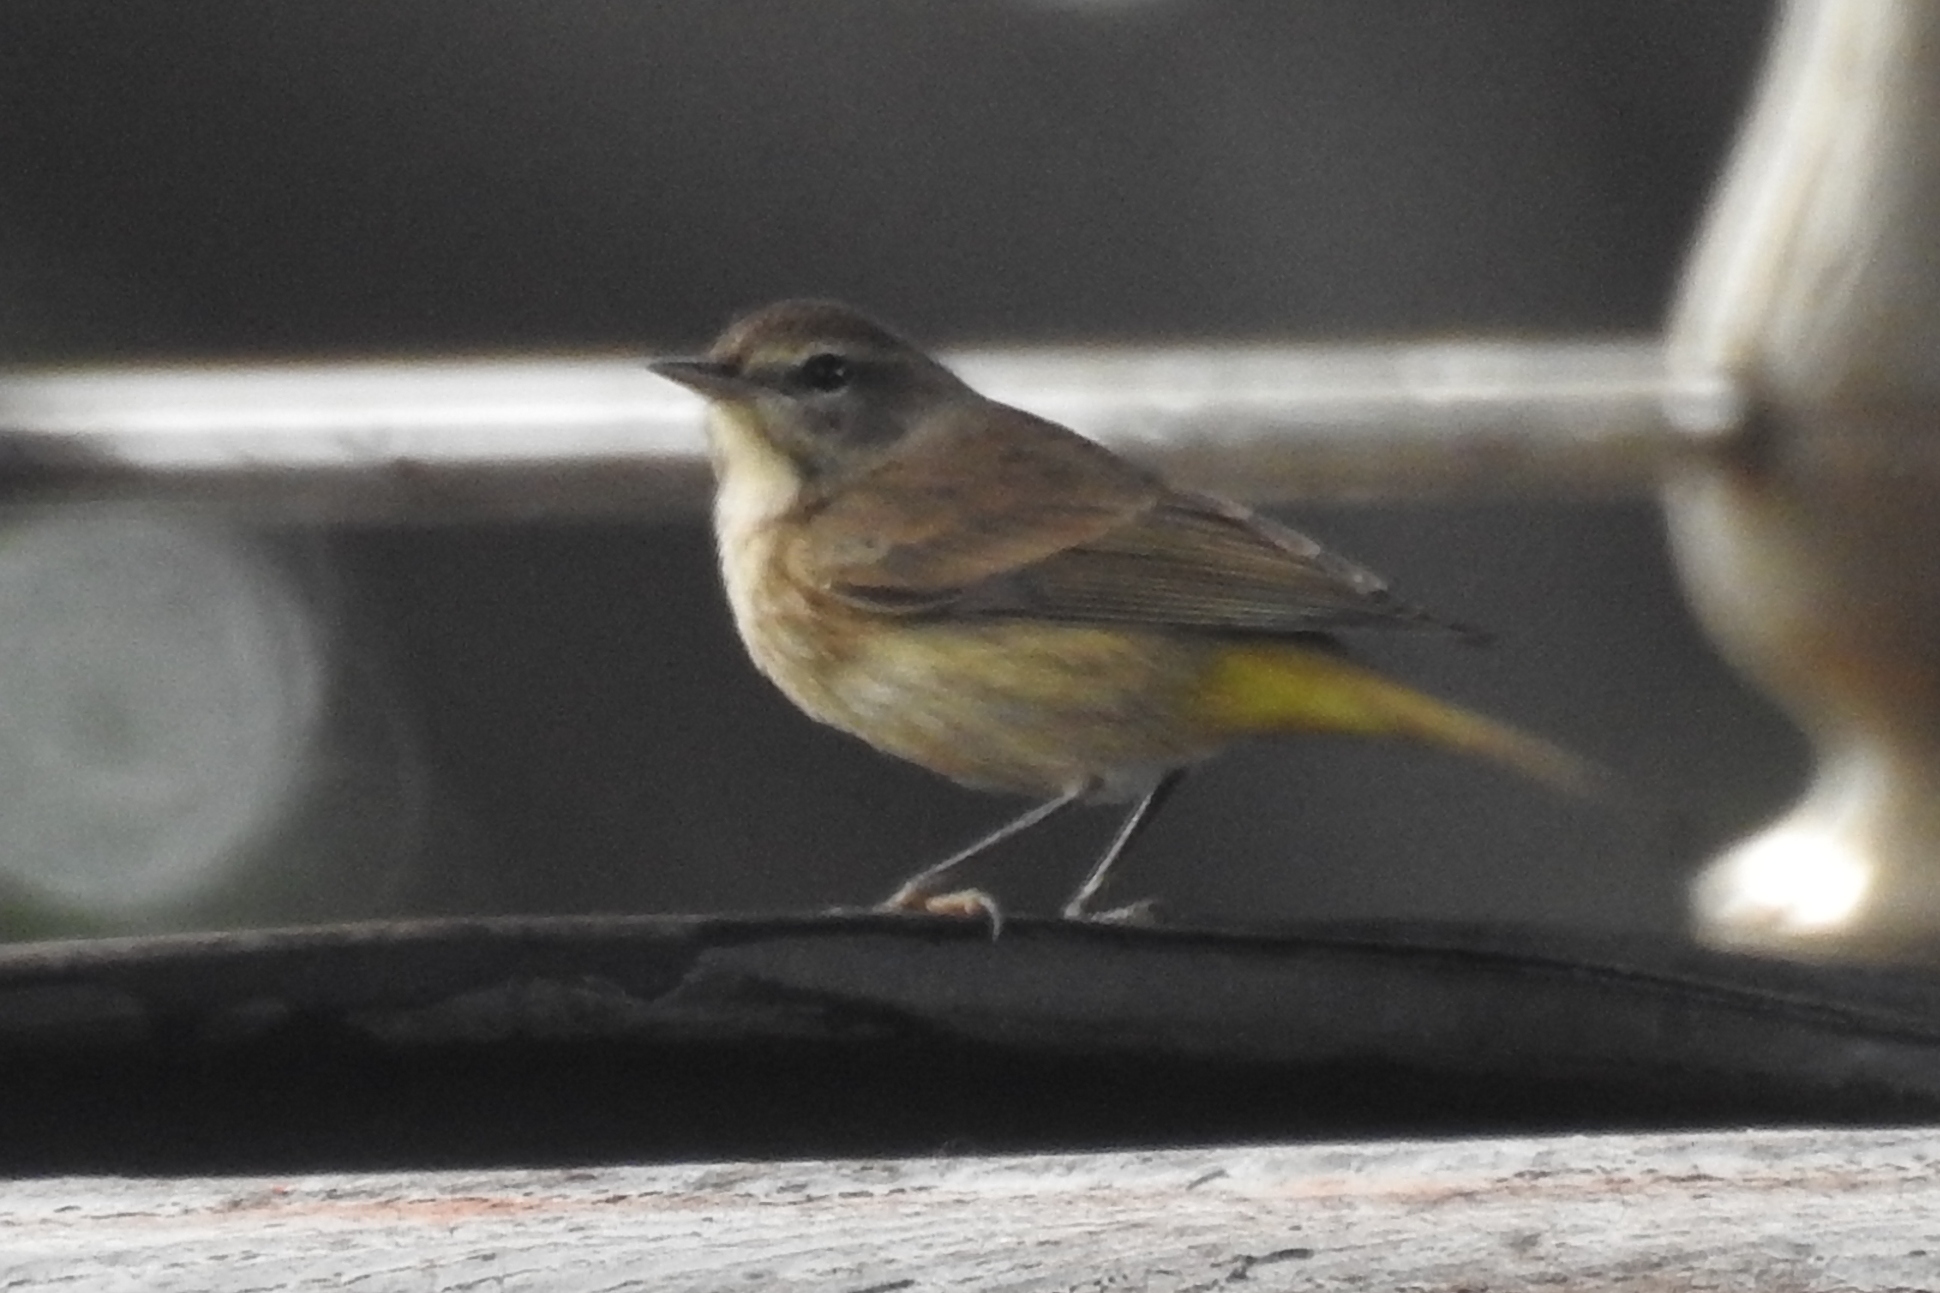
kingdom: Animalia
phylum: Chordata
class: Aves
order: Passeriformes
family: Parulidae
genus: Setophaga
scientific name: Setophaga palmarum
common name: Palm warbler
